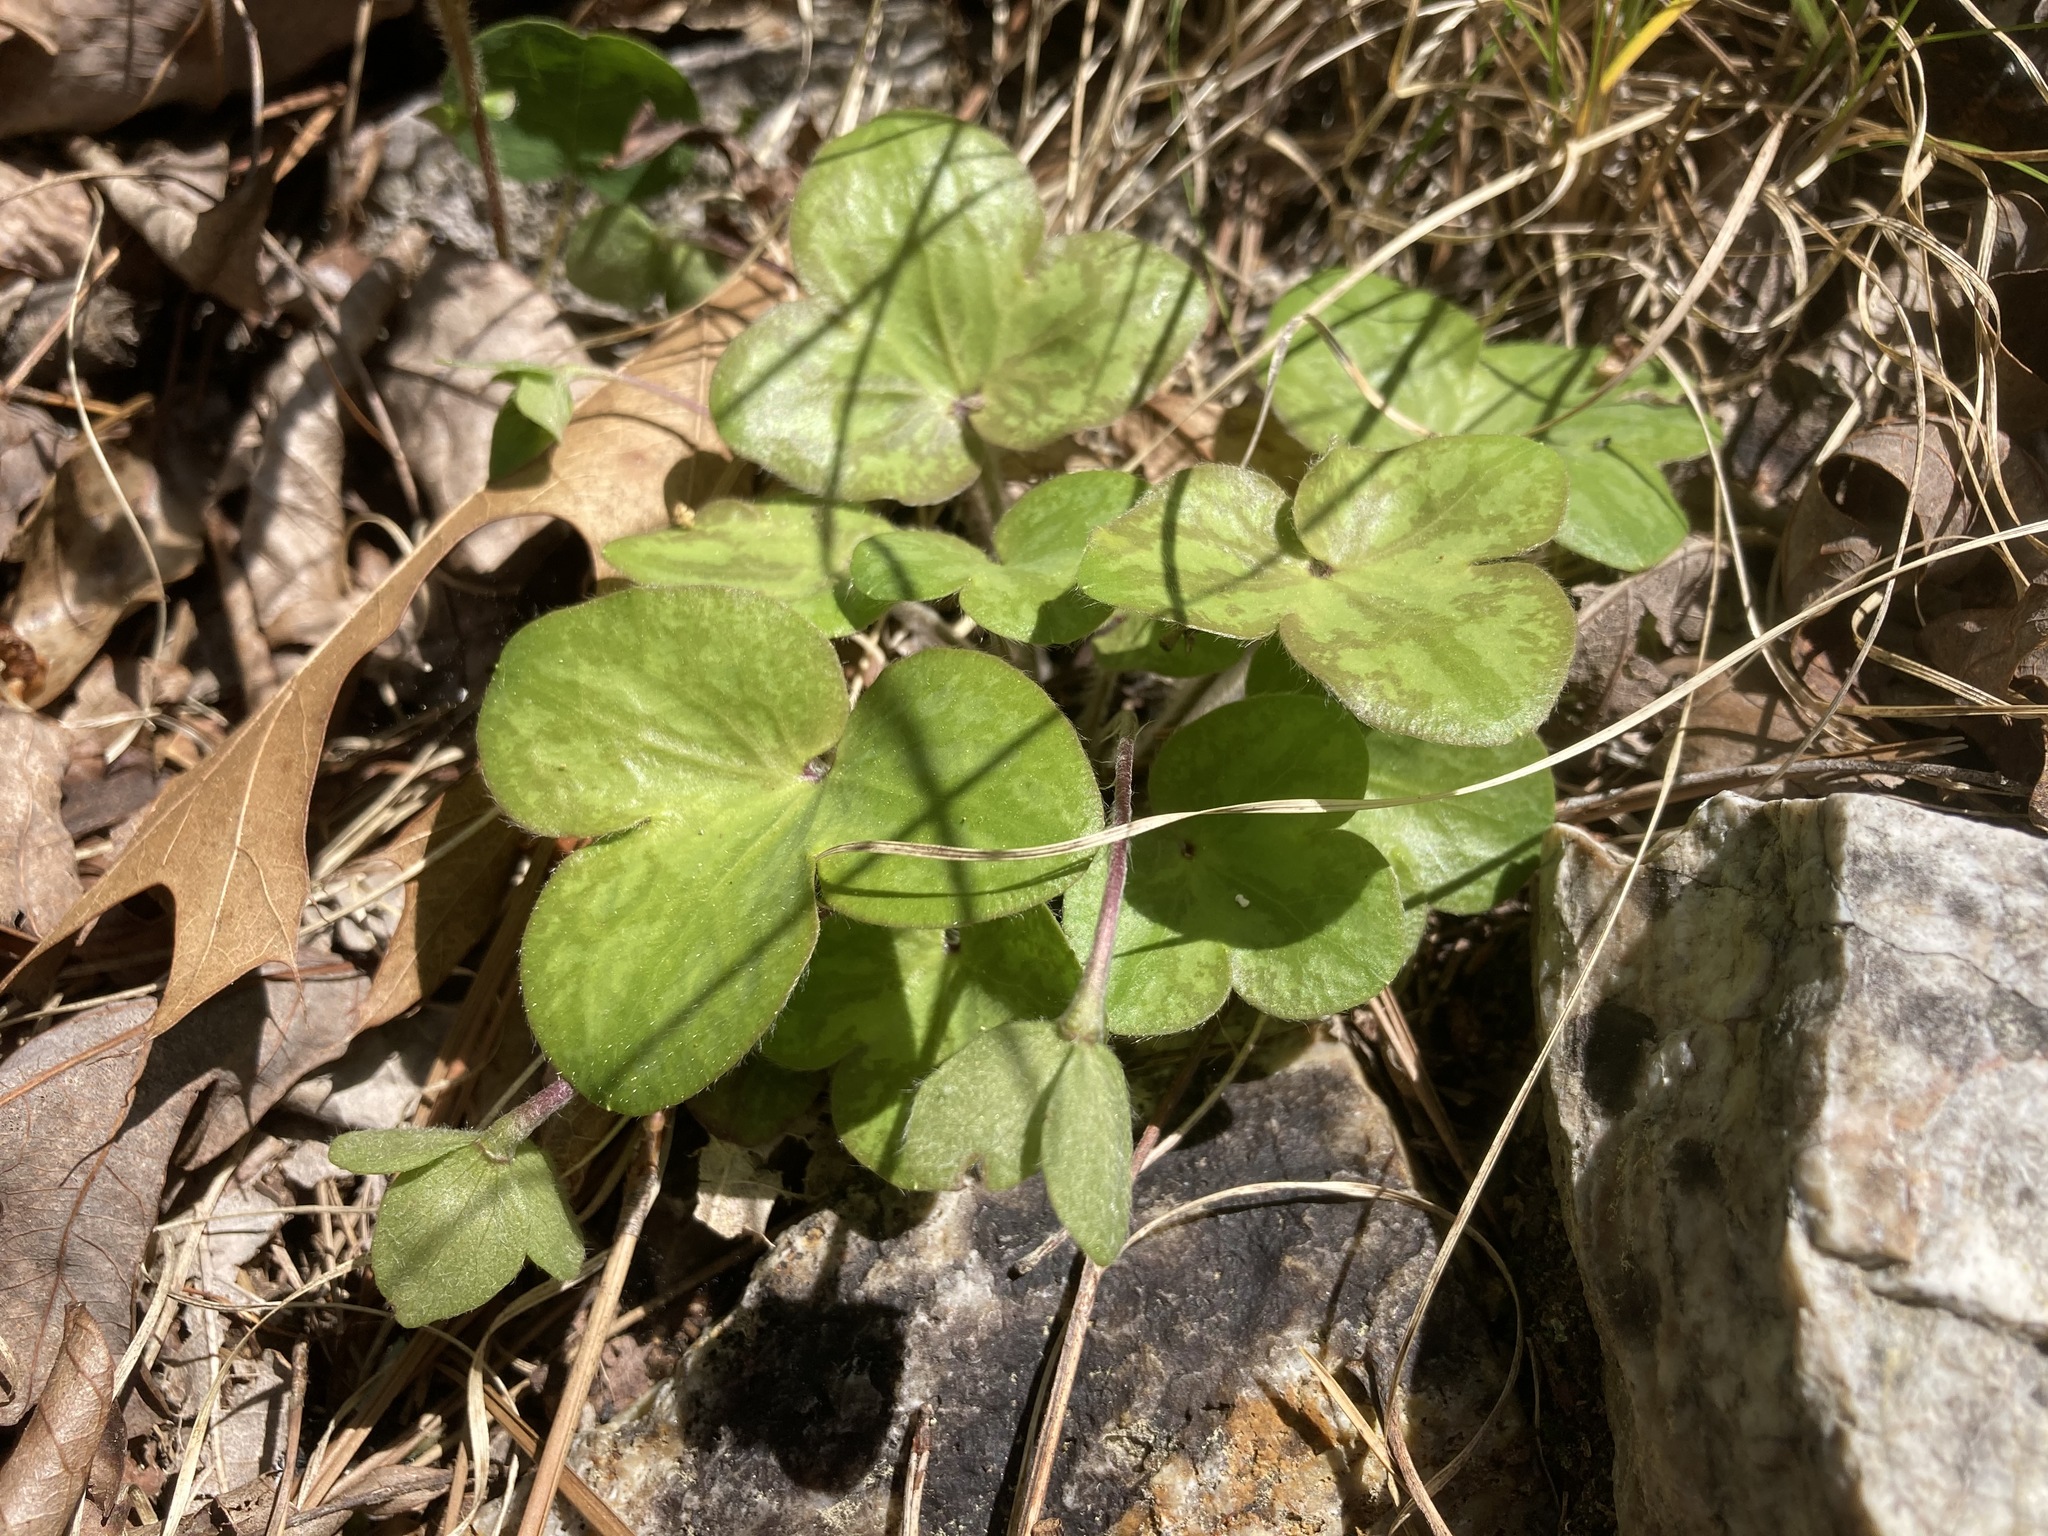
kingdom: Plantae
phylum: Tracheophyta
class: Magnoliopsida
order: Ranunculales
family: Ranunculaceae
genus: Hepatica
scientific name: Hepatica americana
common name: American hepatica
